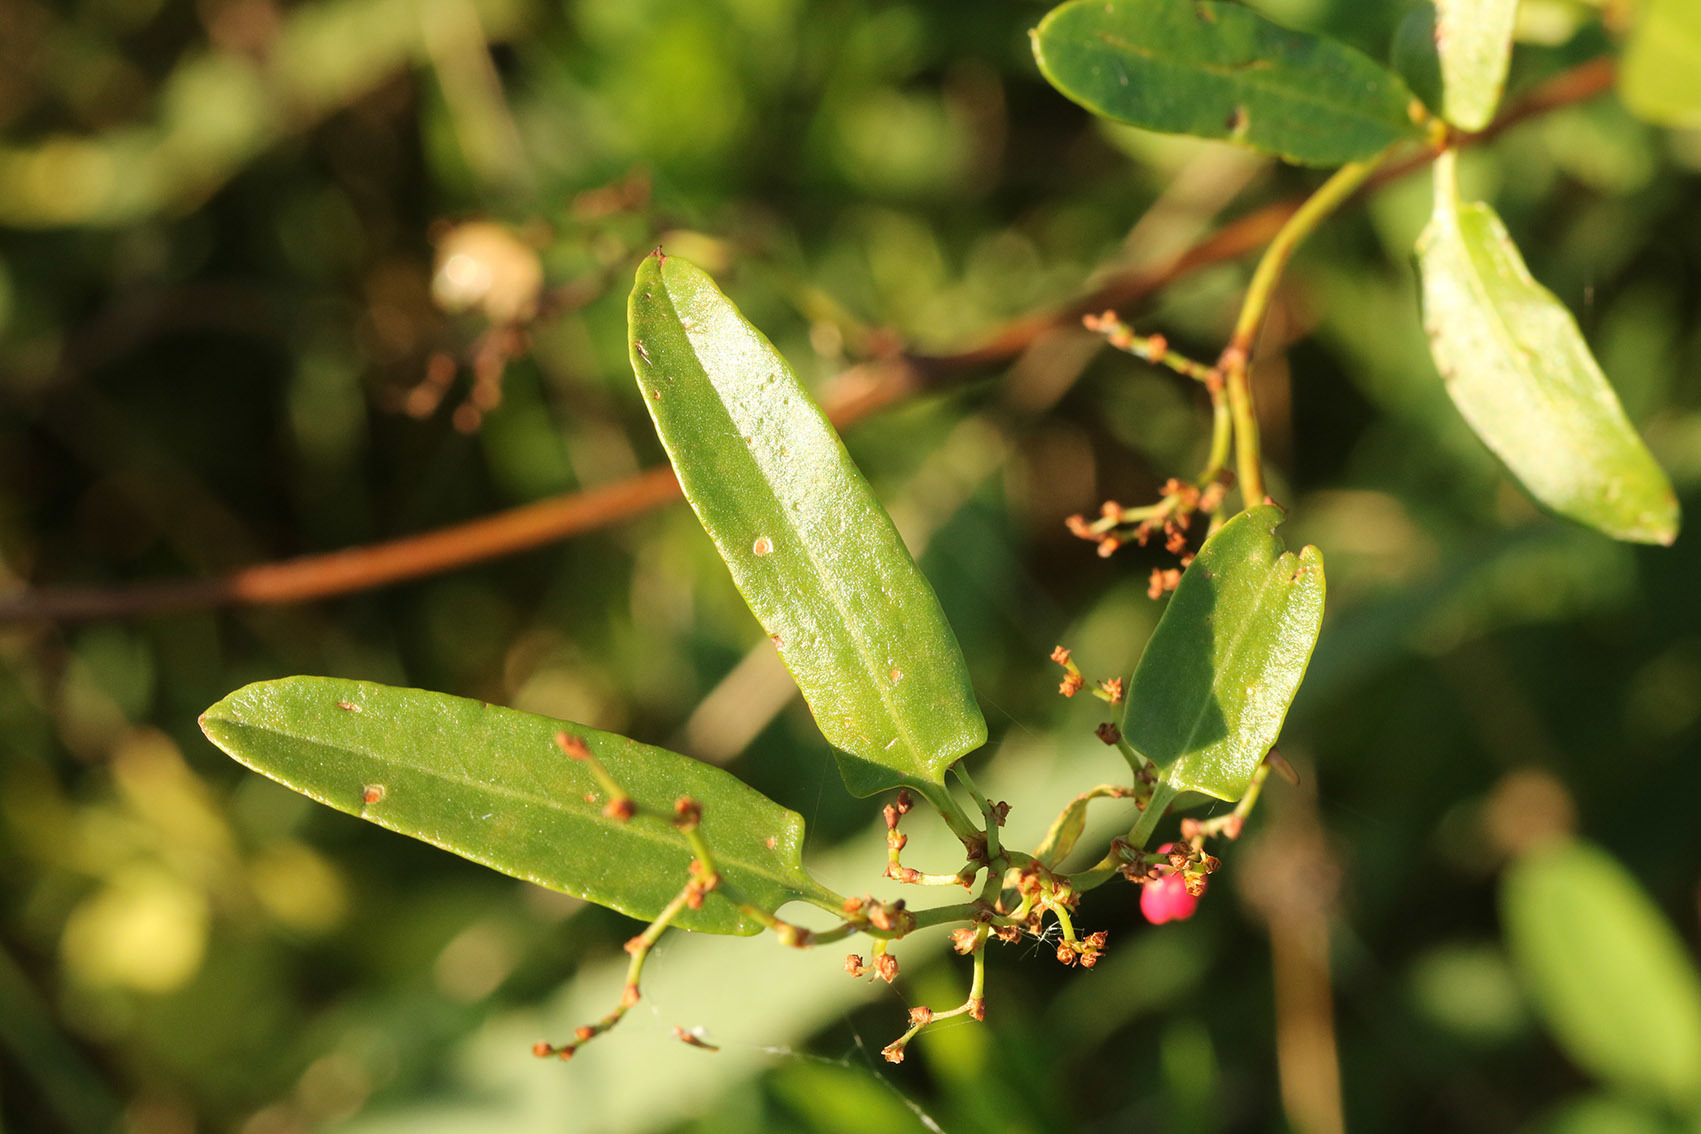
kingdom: Plantae
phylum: Tracheophyta
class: Magnoliopsida
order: Caryophyllales
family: Polygonaceae
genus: Muehlenbeckia
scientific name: Muehlenbeckia sagittifolia
